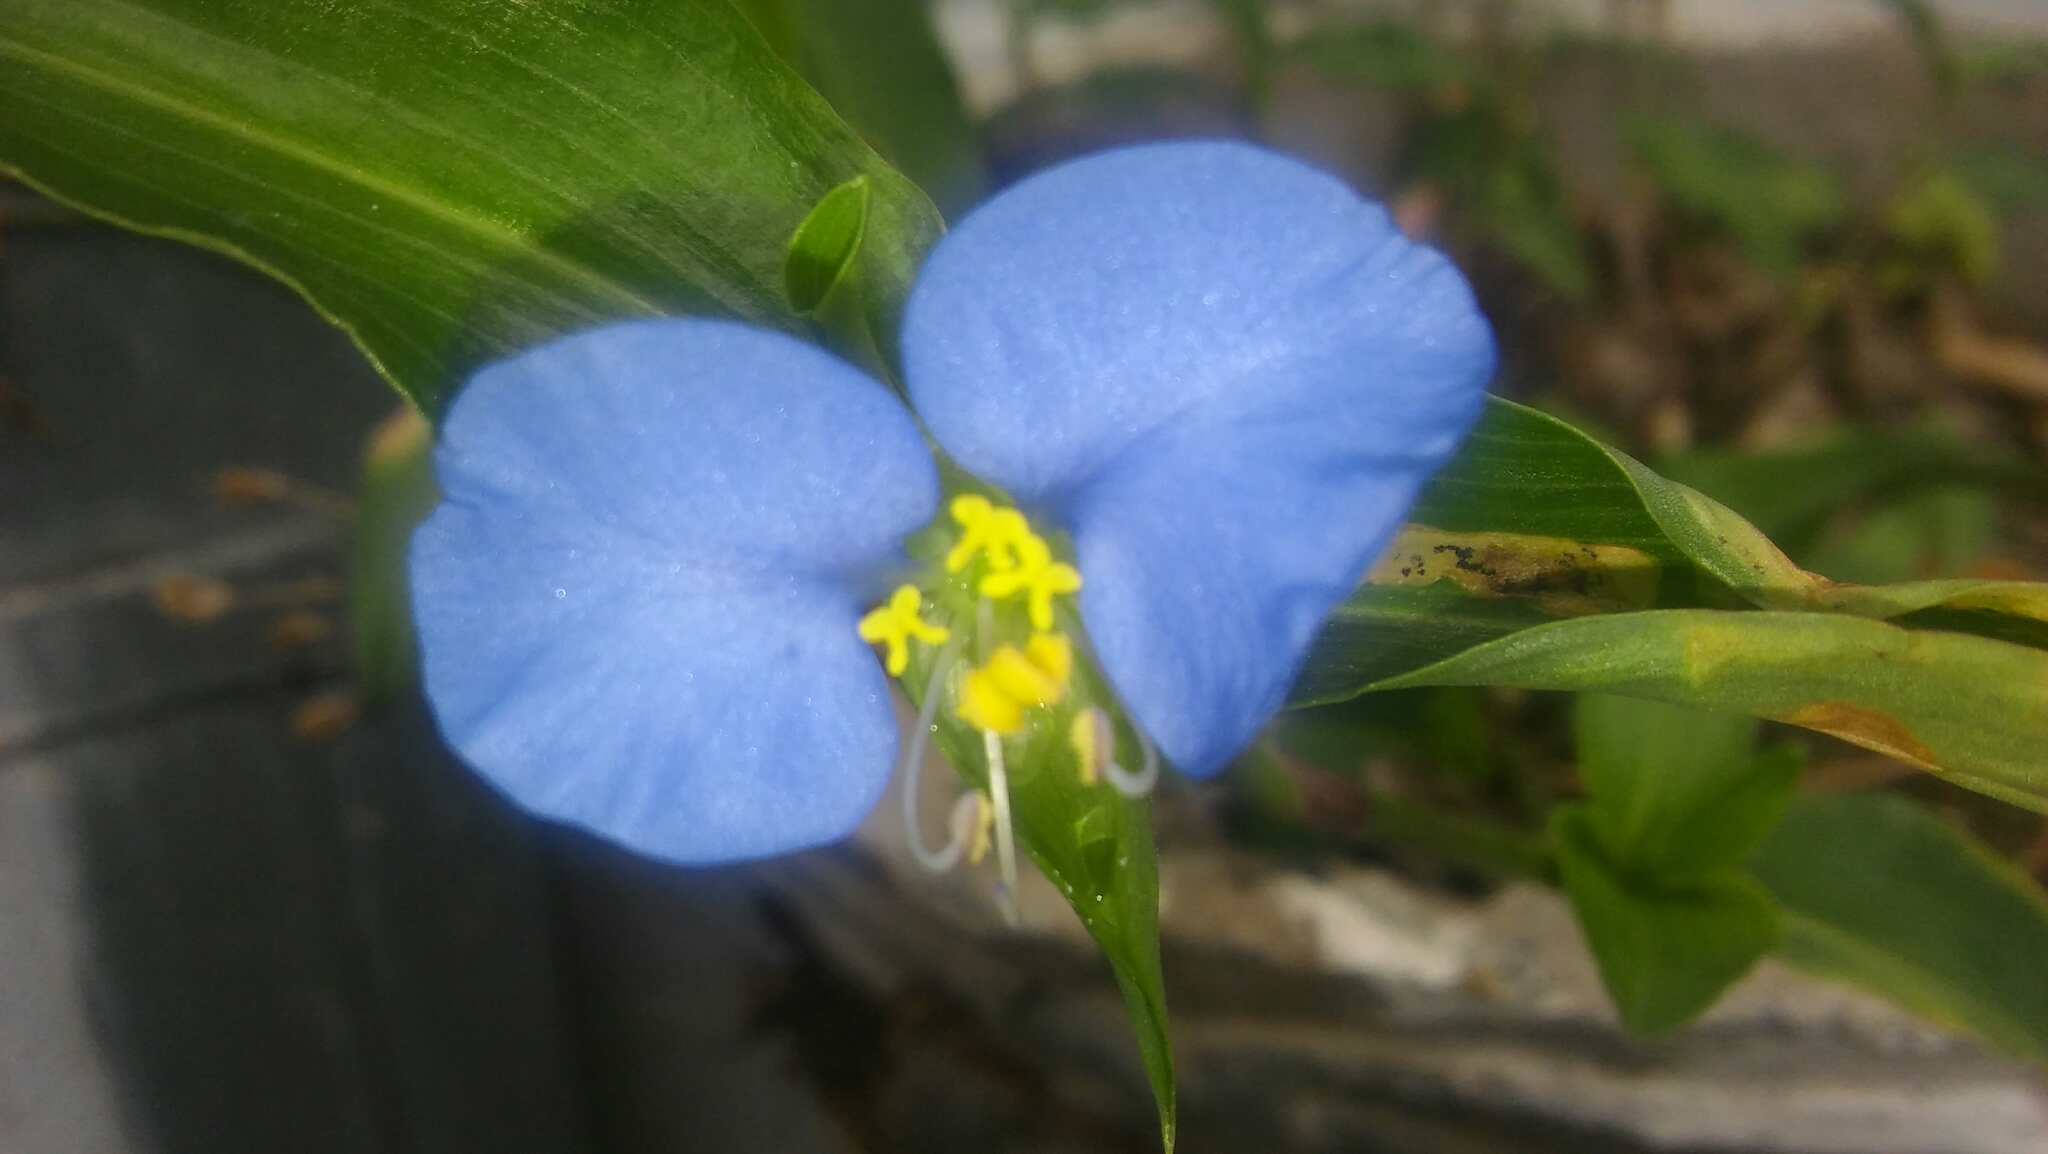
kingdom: Plantae
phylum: Tracheophyta
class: Liliopsida
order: Commelinales
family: Commelinaceae
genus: Commelina
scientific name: Commelina erecta
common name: Blousel blommetjie
